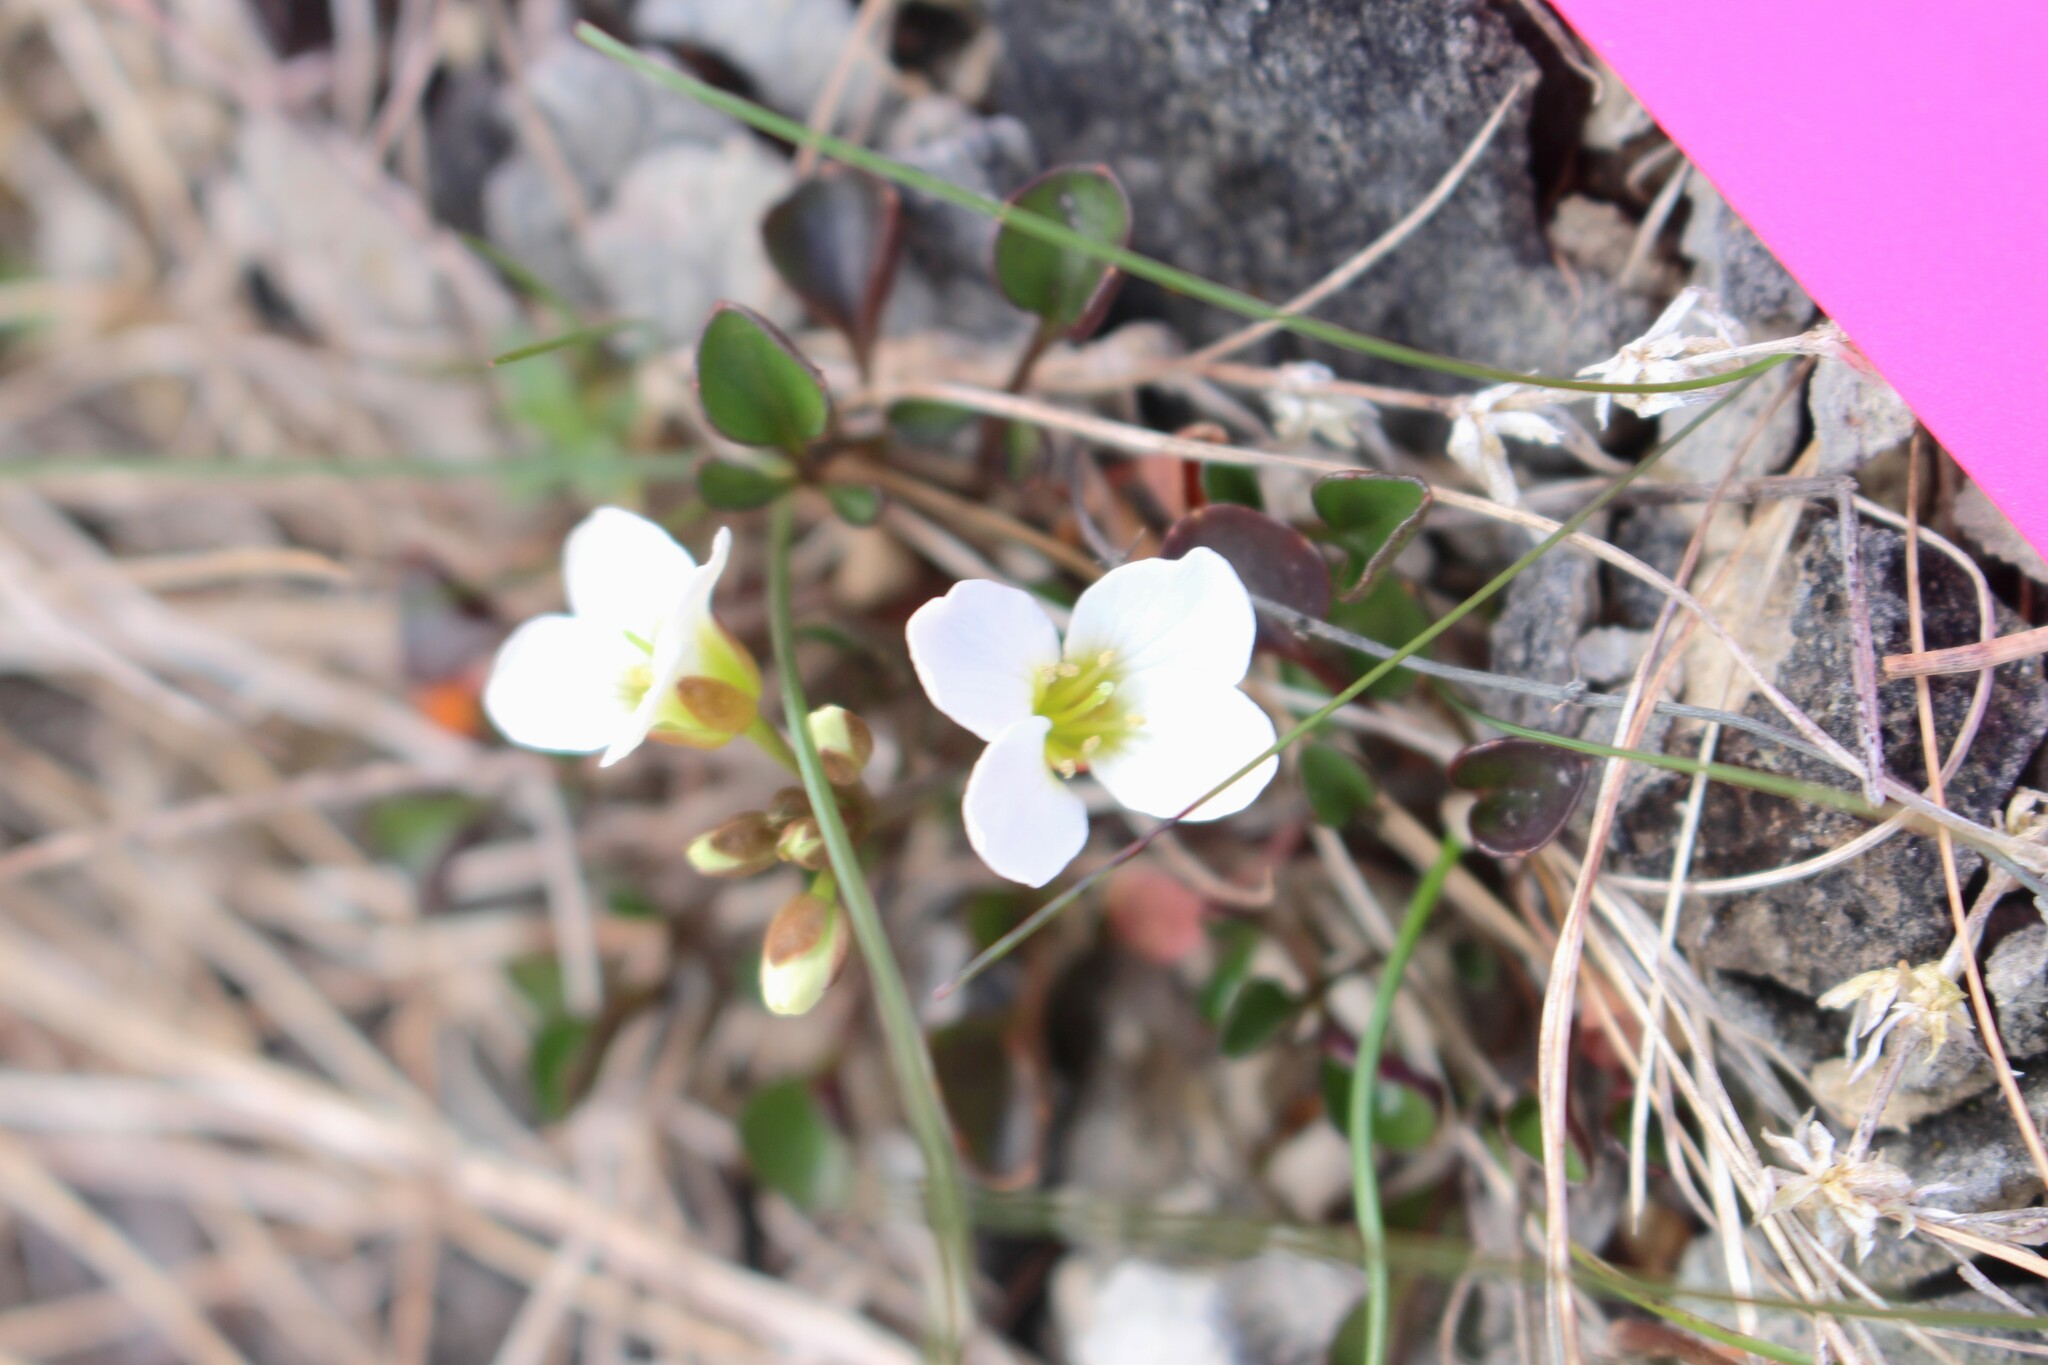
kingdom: Plantae
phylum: Tracheophyta
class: Magnoliopsida
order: Brassicales
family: Brassicaceae
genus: Cardamine
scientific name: Cardamine magnifica
